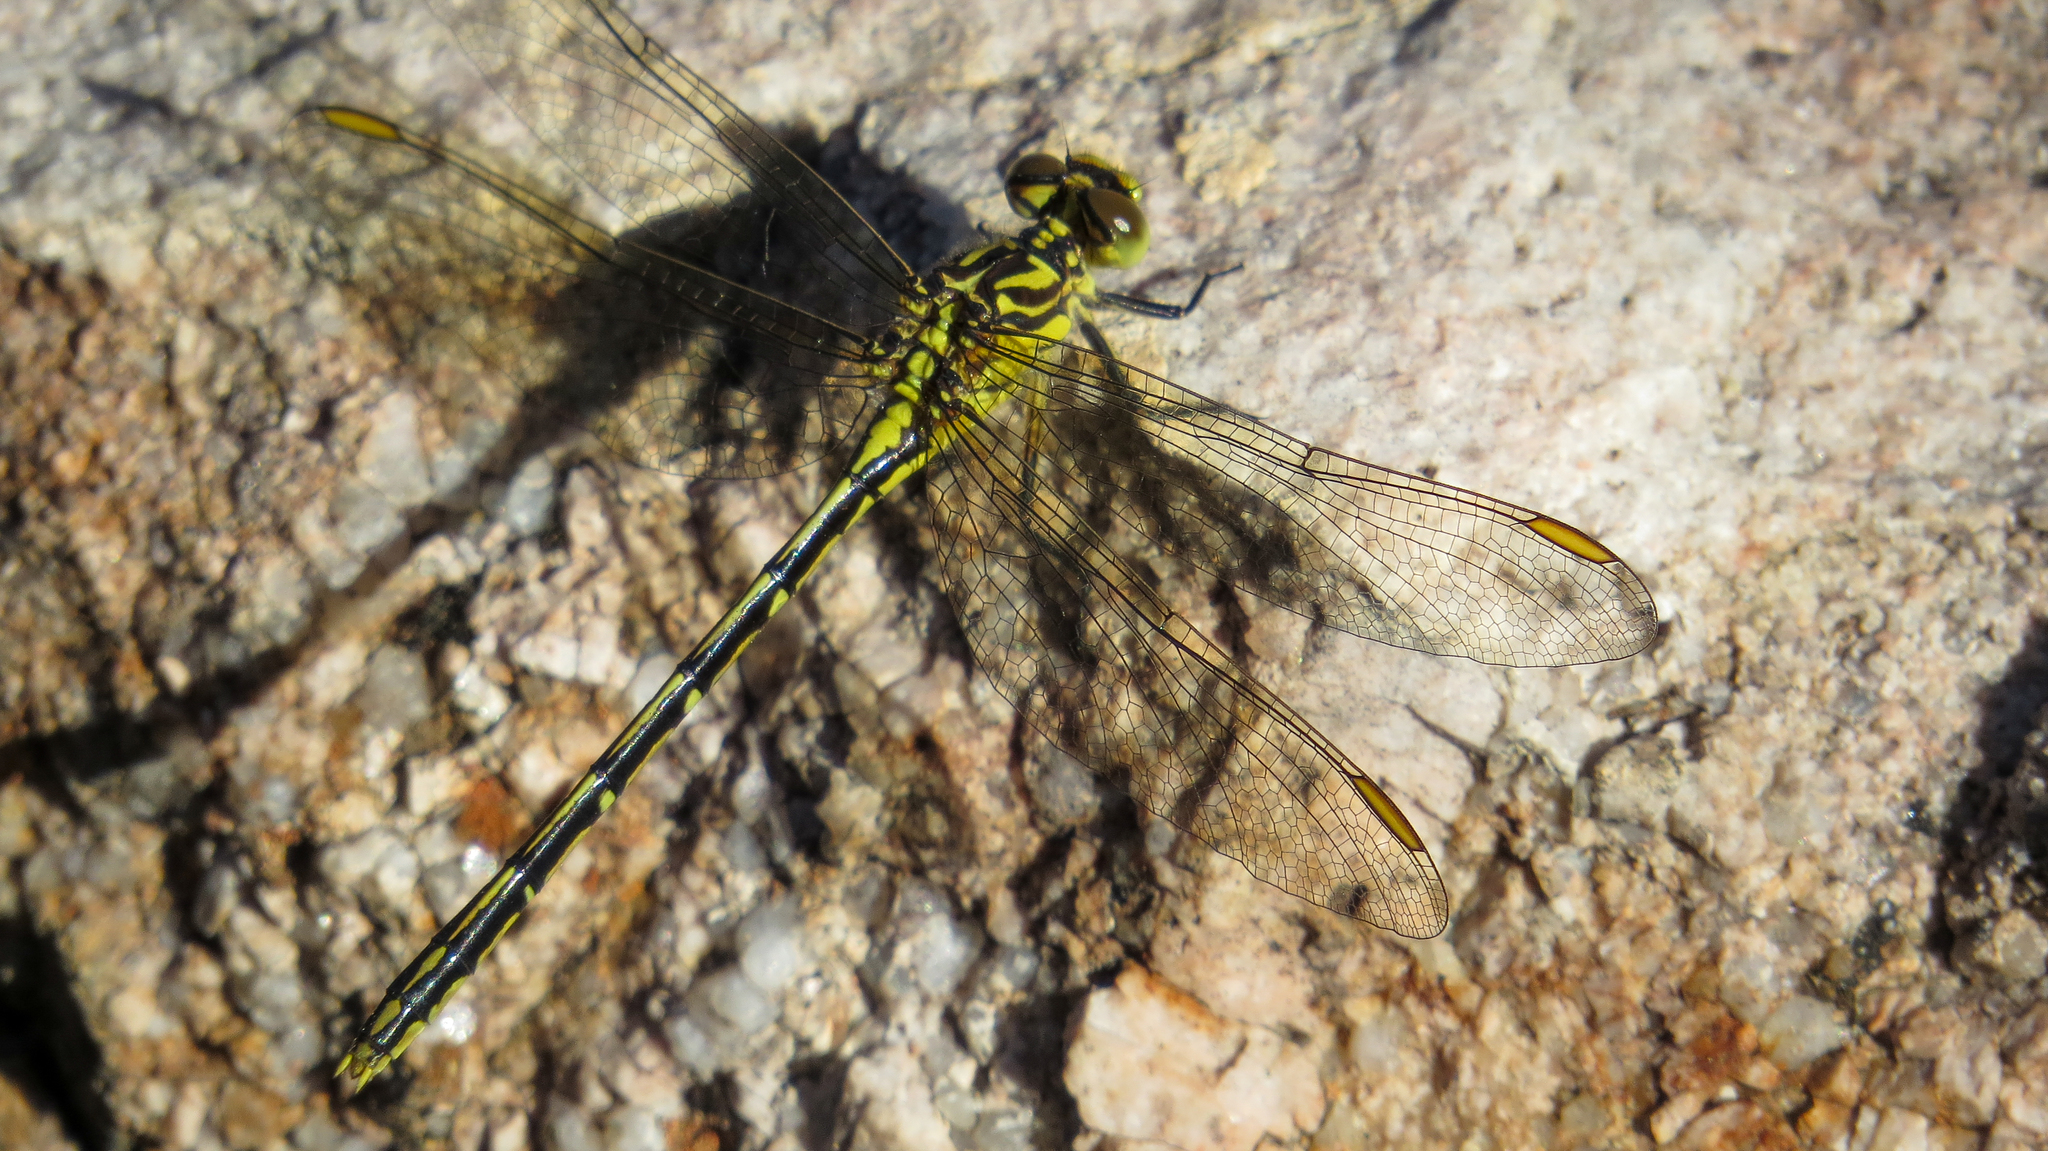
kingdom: Animalia
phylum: Arthropoda
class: Insecta
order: Odonata
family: Gomphidae
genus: Austrogomphus
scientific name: Austrogomphus guerini
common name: Yellow-striped hunter
